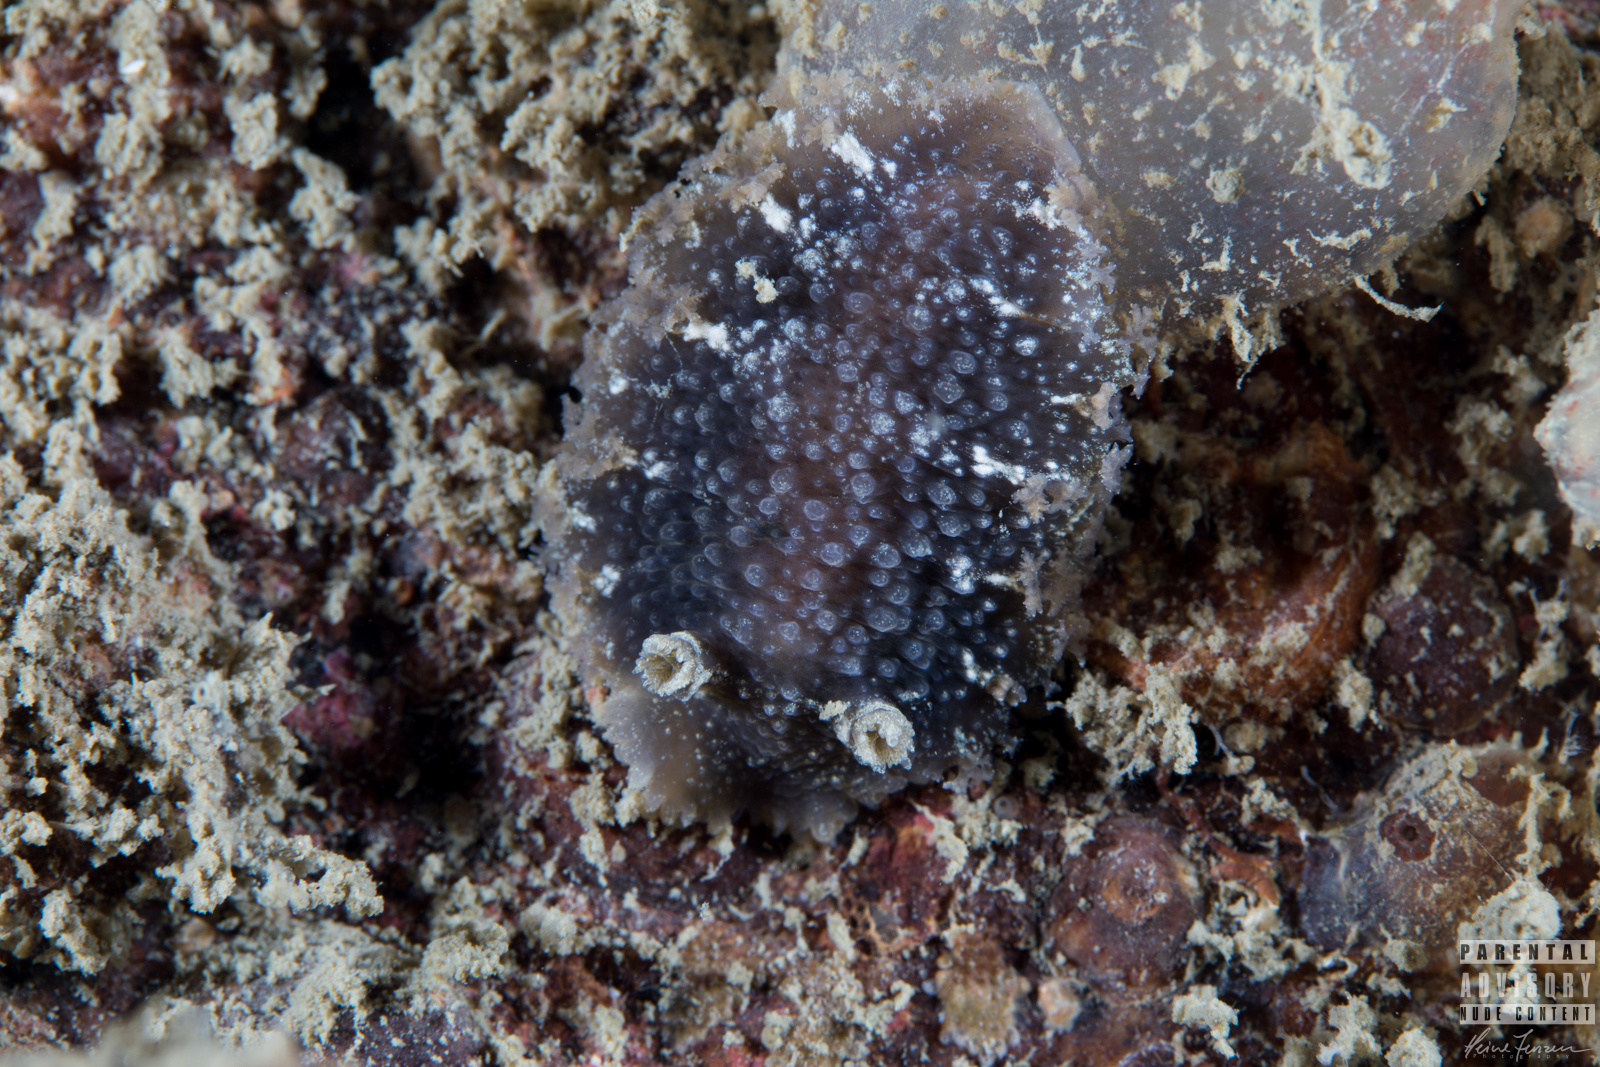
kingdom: Animalia
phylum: Mollusca
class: Gastropoda
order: Nudibranchia
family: Tritoniidae
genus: Tritonia
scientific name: Tritonia hombergii
